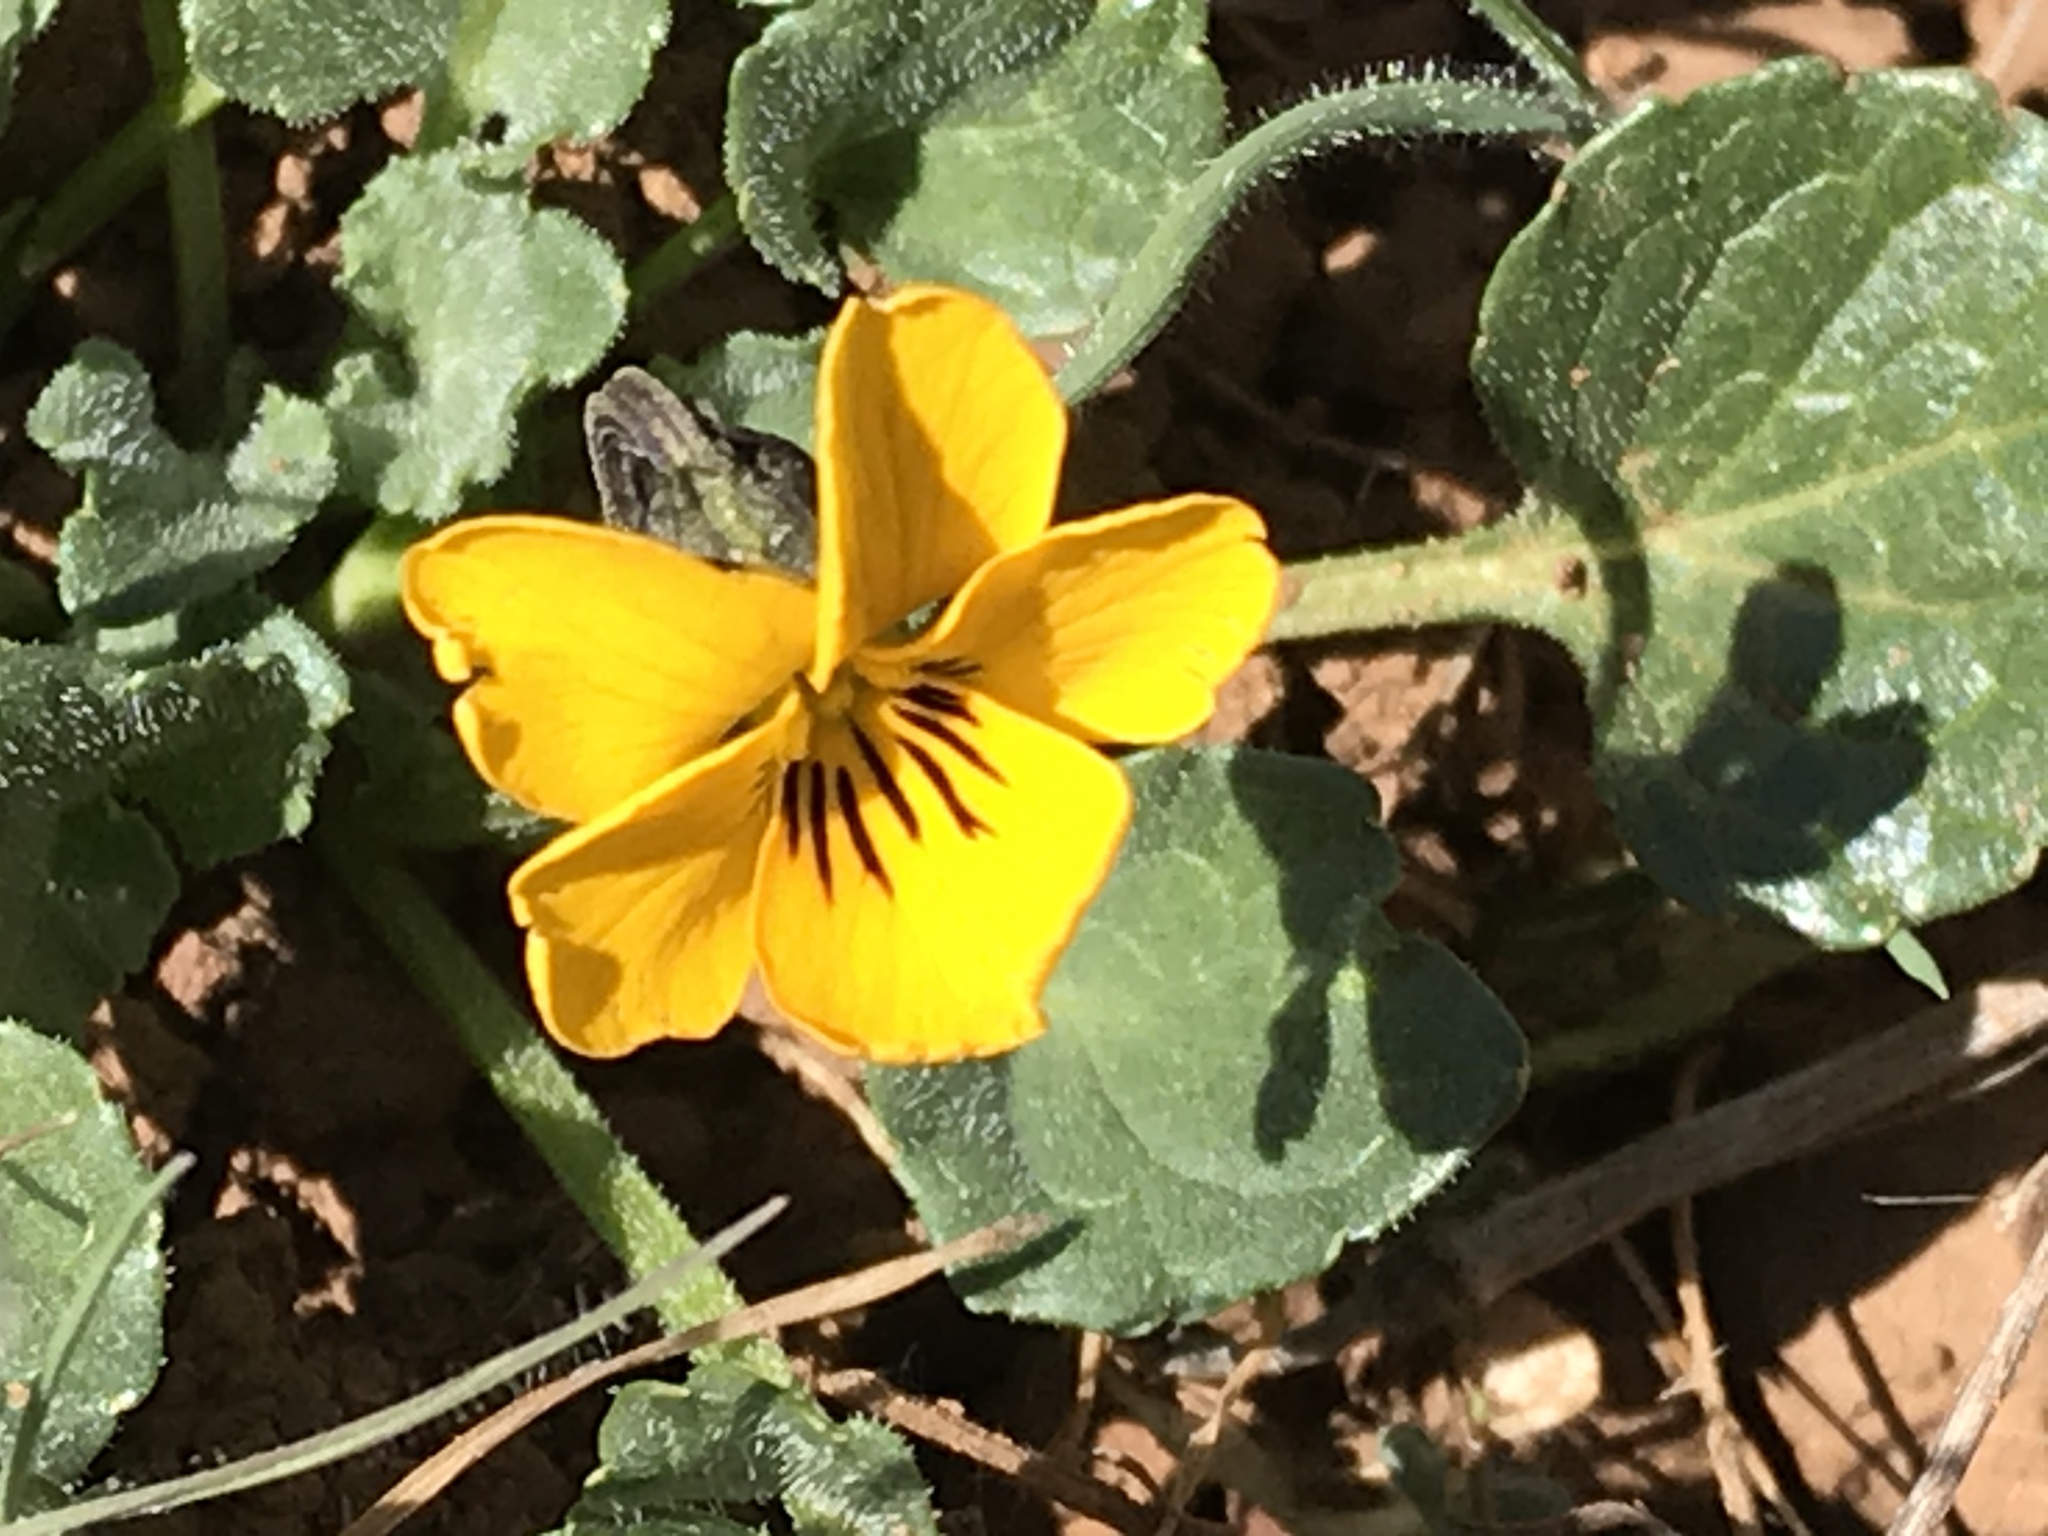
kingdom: Plantae
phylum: Tracheophyta
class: Magnoliopsida
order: Malpighiales
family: Violaceae
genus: Viola
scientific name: Viola pedunculata
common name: California golden violet
